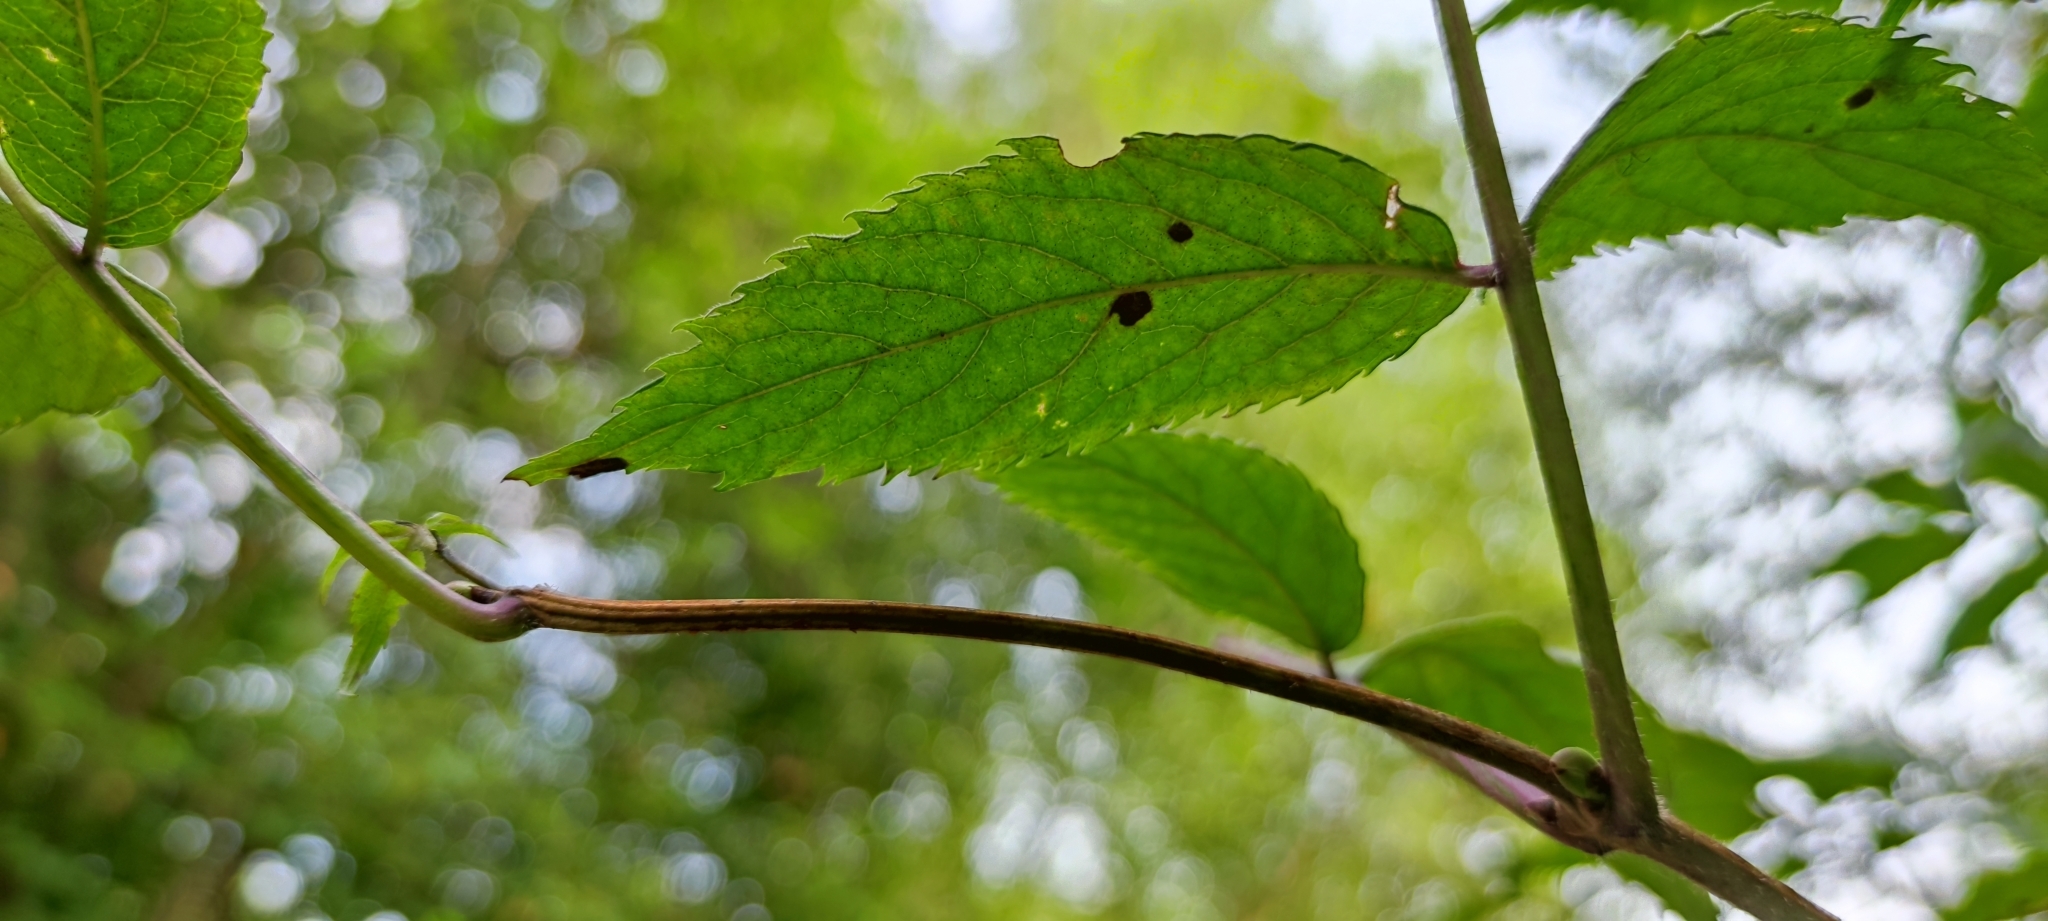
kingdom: Plantae
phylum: Tracheophyta
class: Magnoliopsida
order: Dipsacales
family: Viburnaceae
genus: Sambucus
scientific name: Sambucus racemosa
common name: Red-berried elder
